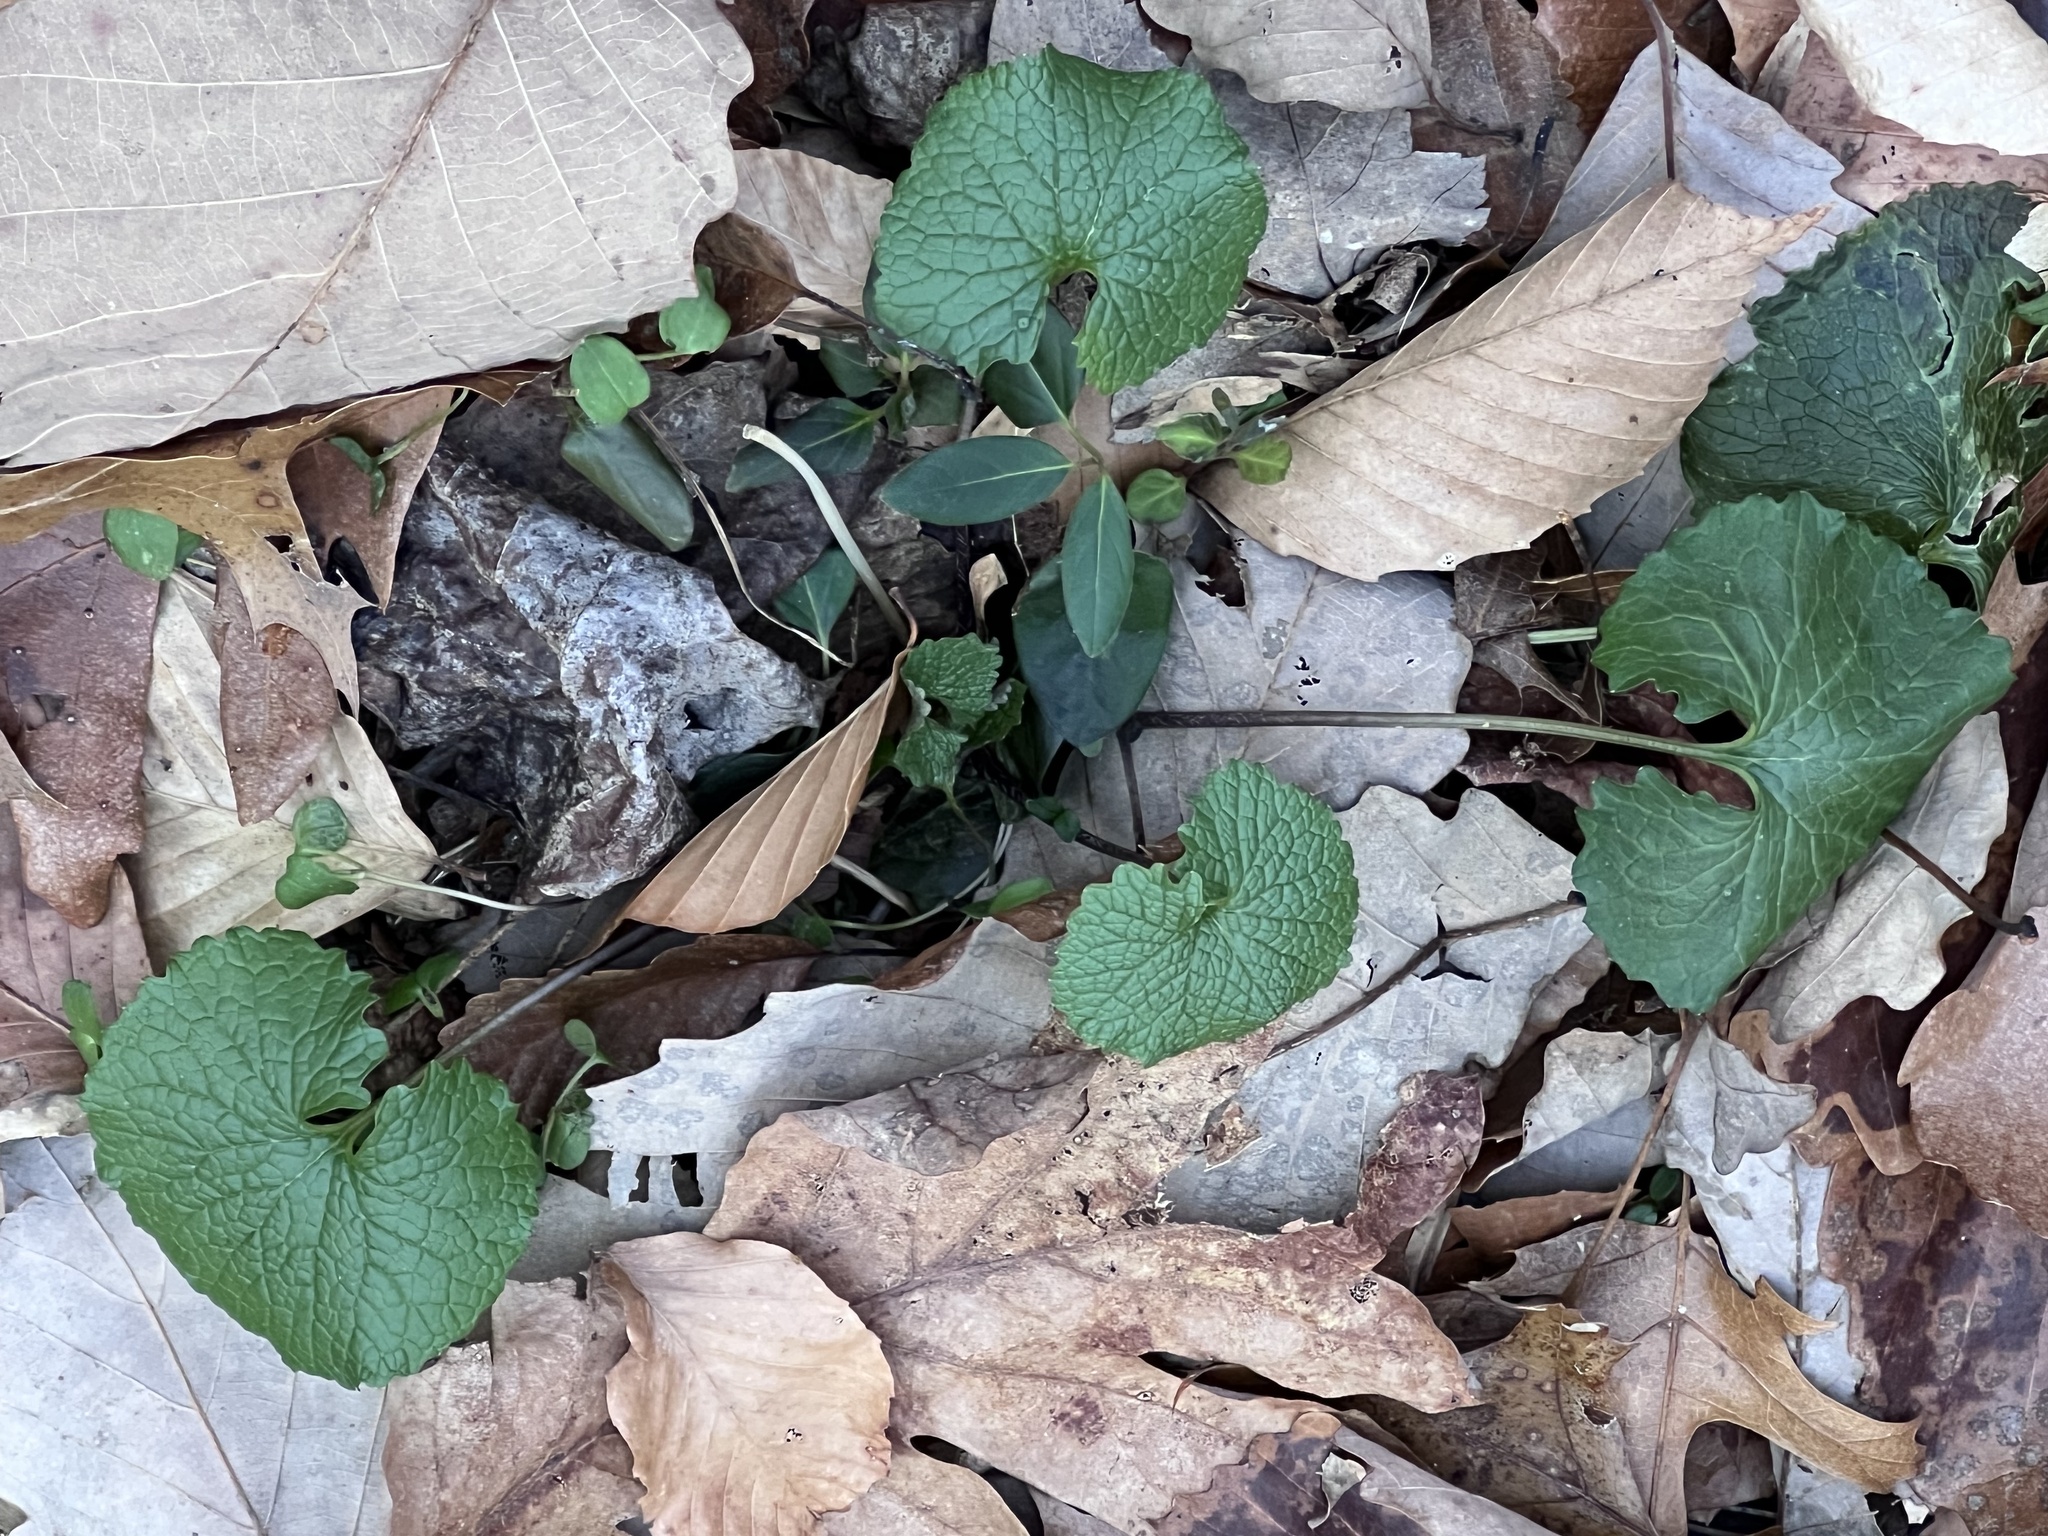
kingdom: Plantae
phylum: Tracheophyta
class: Magnoliopsida
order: Brassicales
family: Brassicaceae
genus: Alliaria
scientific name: Alliaria petiolata
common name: Garlic mustard
